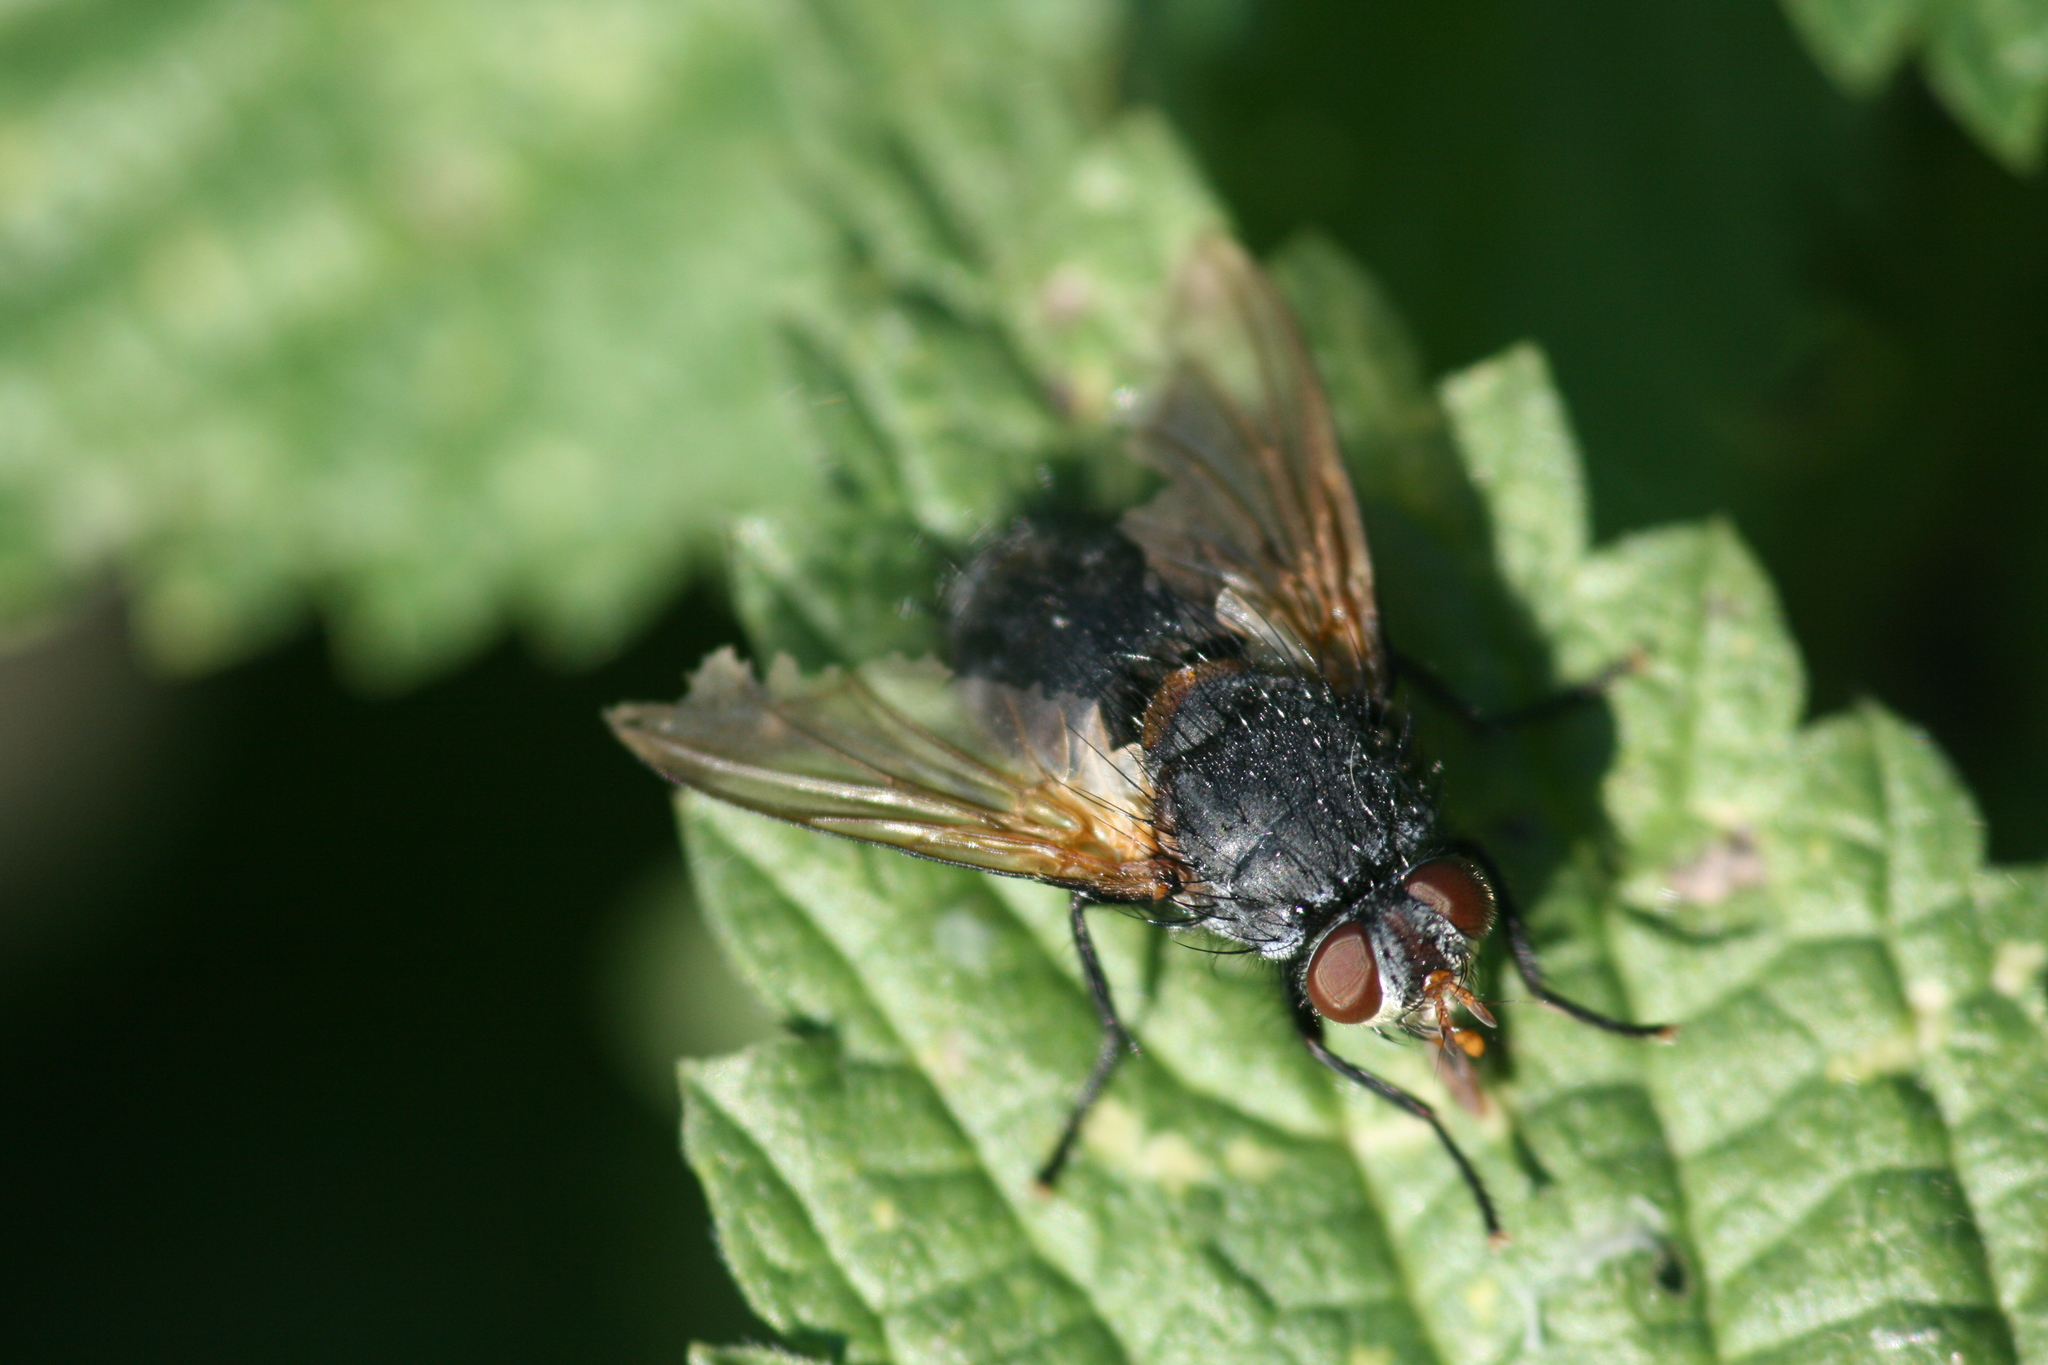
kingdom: Animalia
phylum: Arthropoda
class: Insecta
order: Diptera
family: Tachinidae
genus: Nemoraea
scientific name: Nemoraea pellucida
